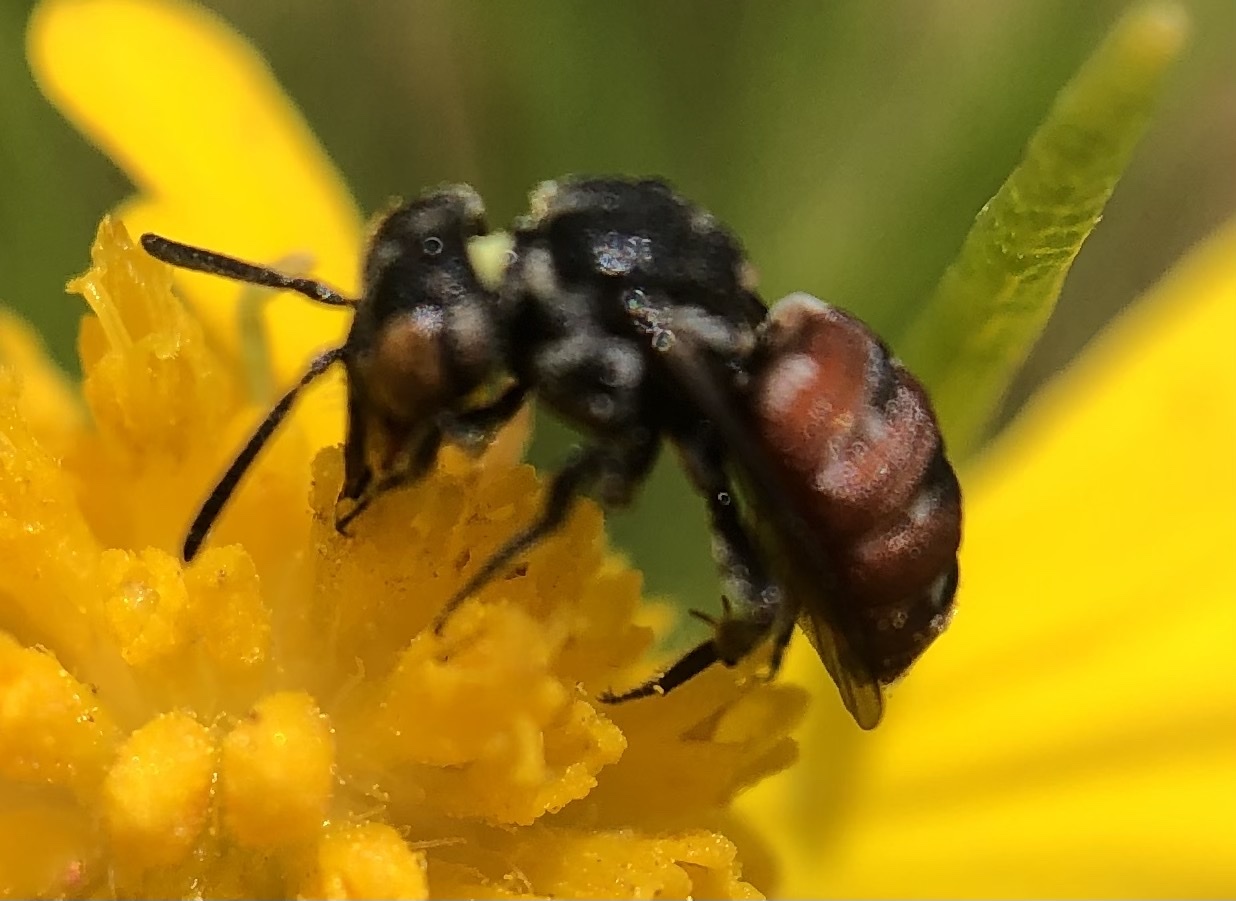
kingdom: Animalia
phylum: Arthropoda
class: Insecta
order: Hymenoptera
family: Apidae
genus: Holcopasites
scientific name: Holcopasites calliopsidis
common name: Calliopsis cuckoo nomad bee
